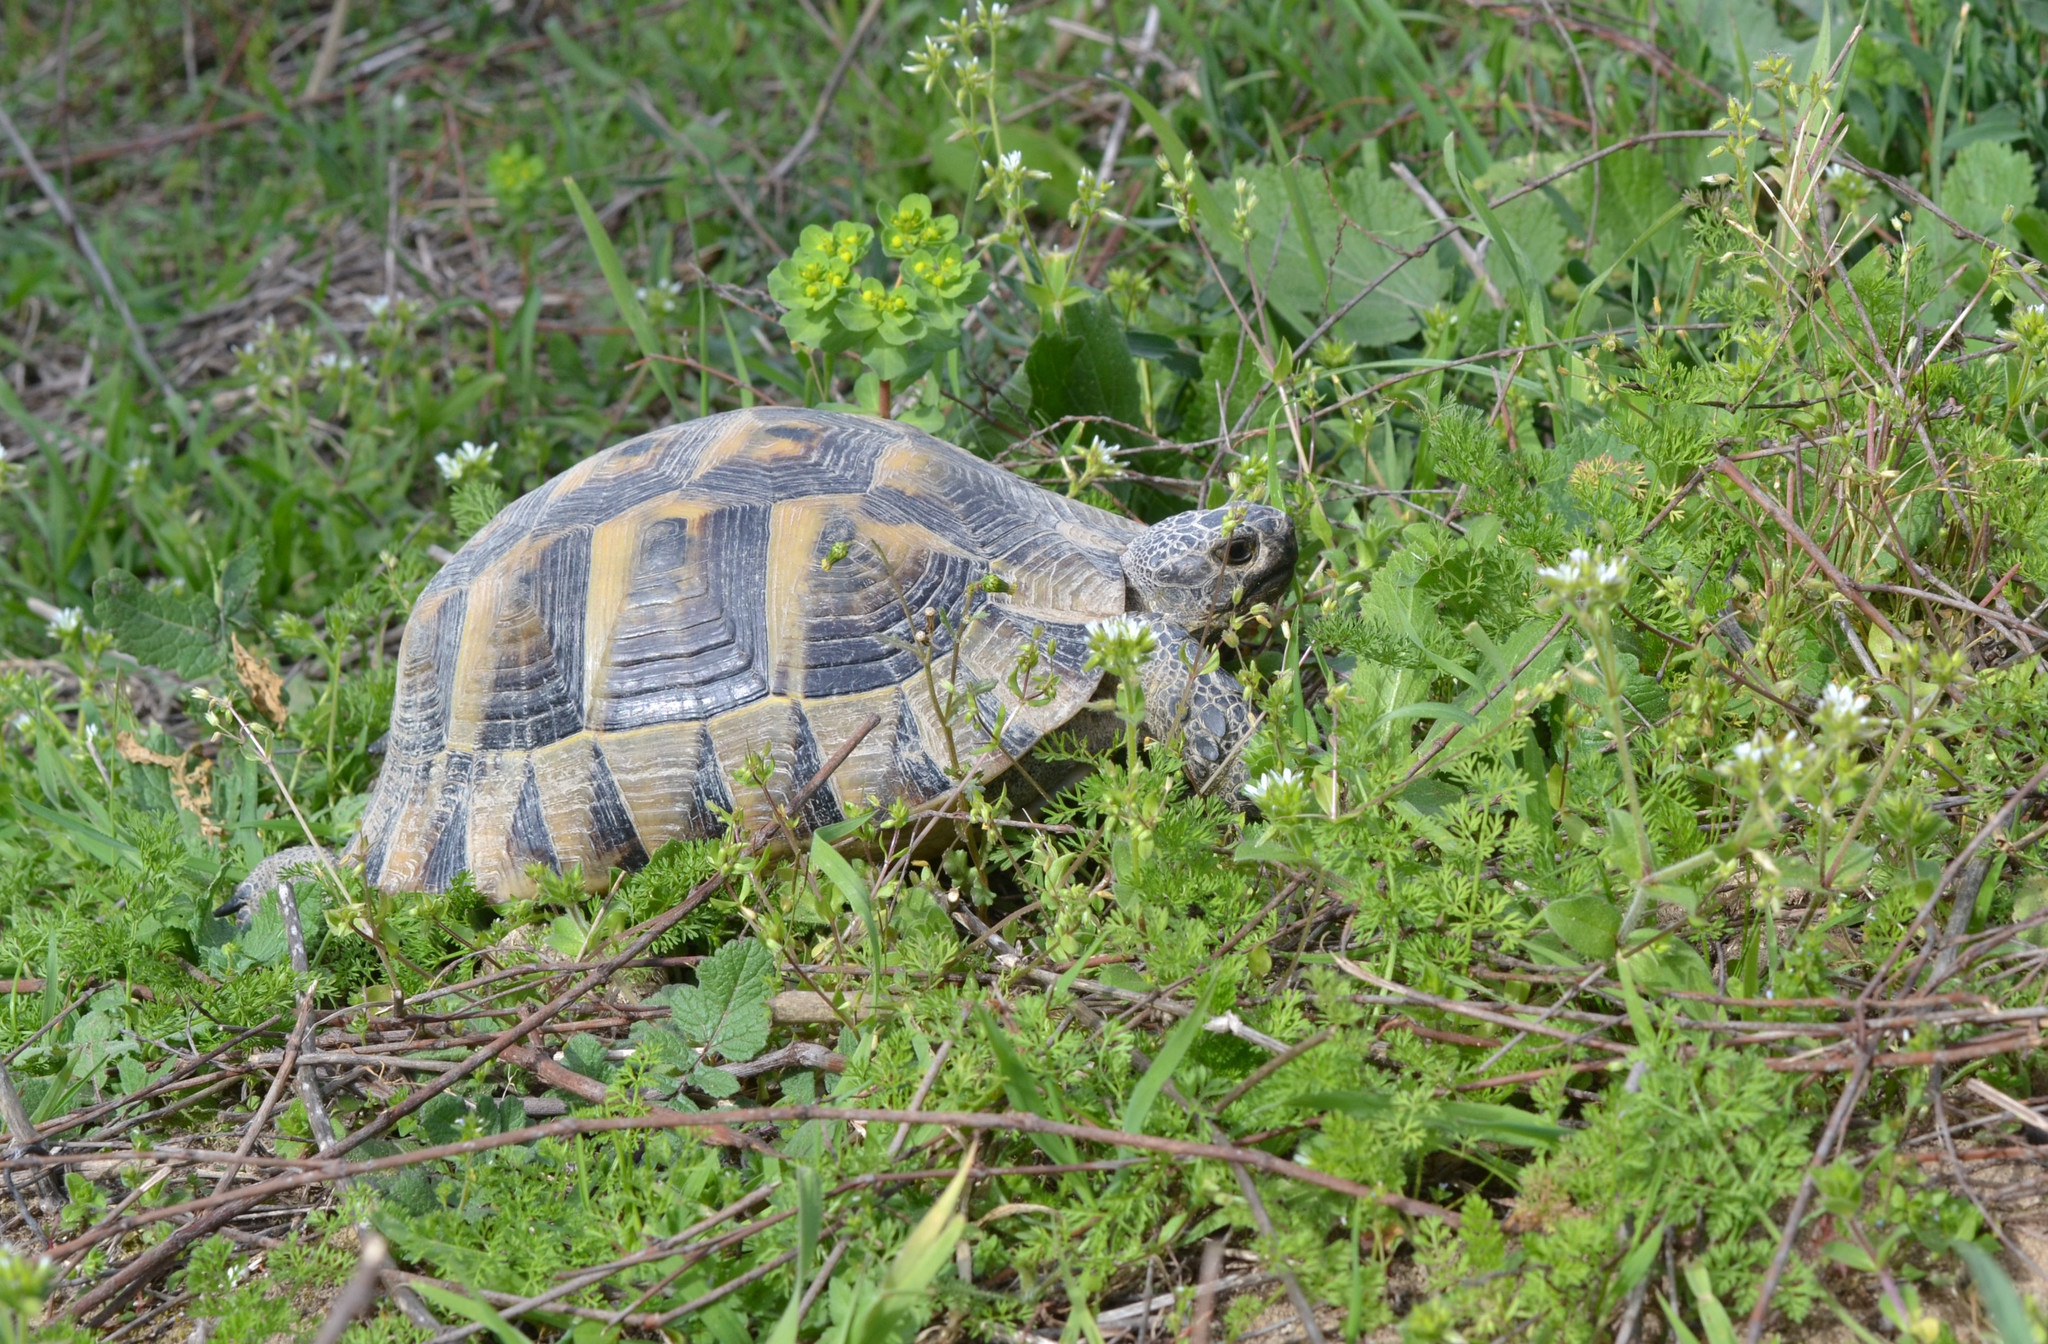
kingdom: Animalia
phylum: Chordata
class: Testudines
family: Testudinidae
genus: Testudo
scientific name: Testudo graeca
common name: Common tortoise
